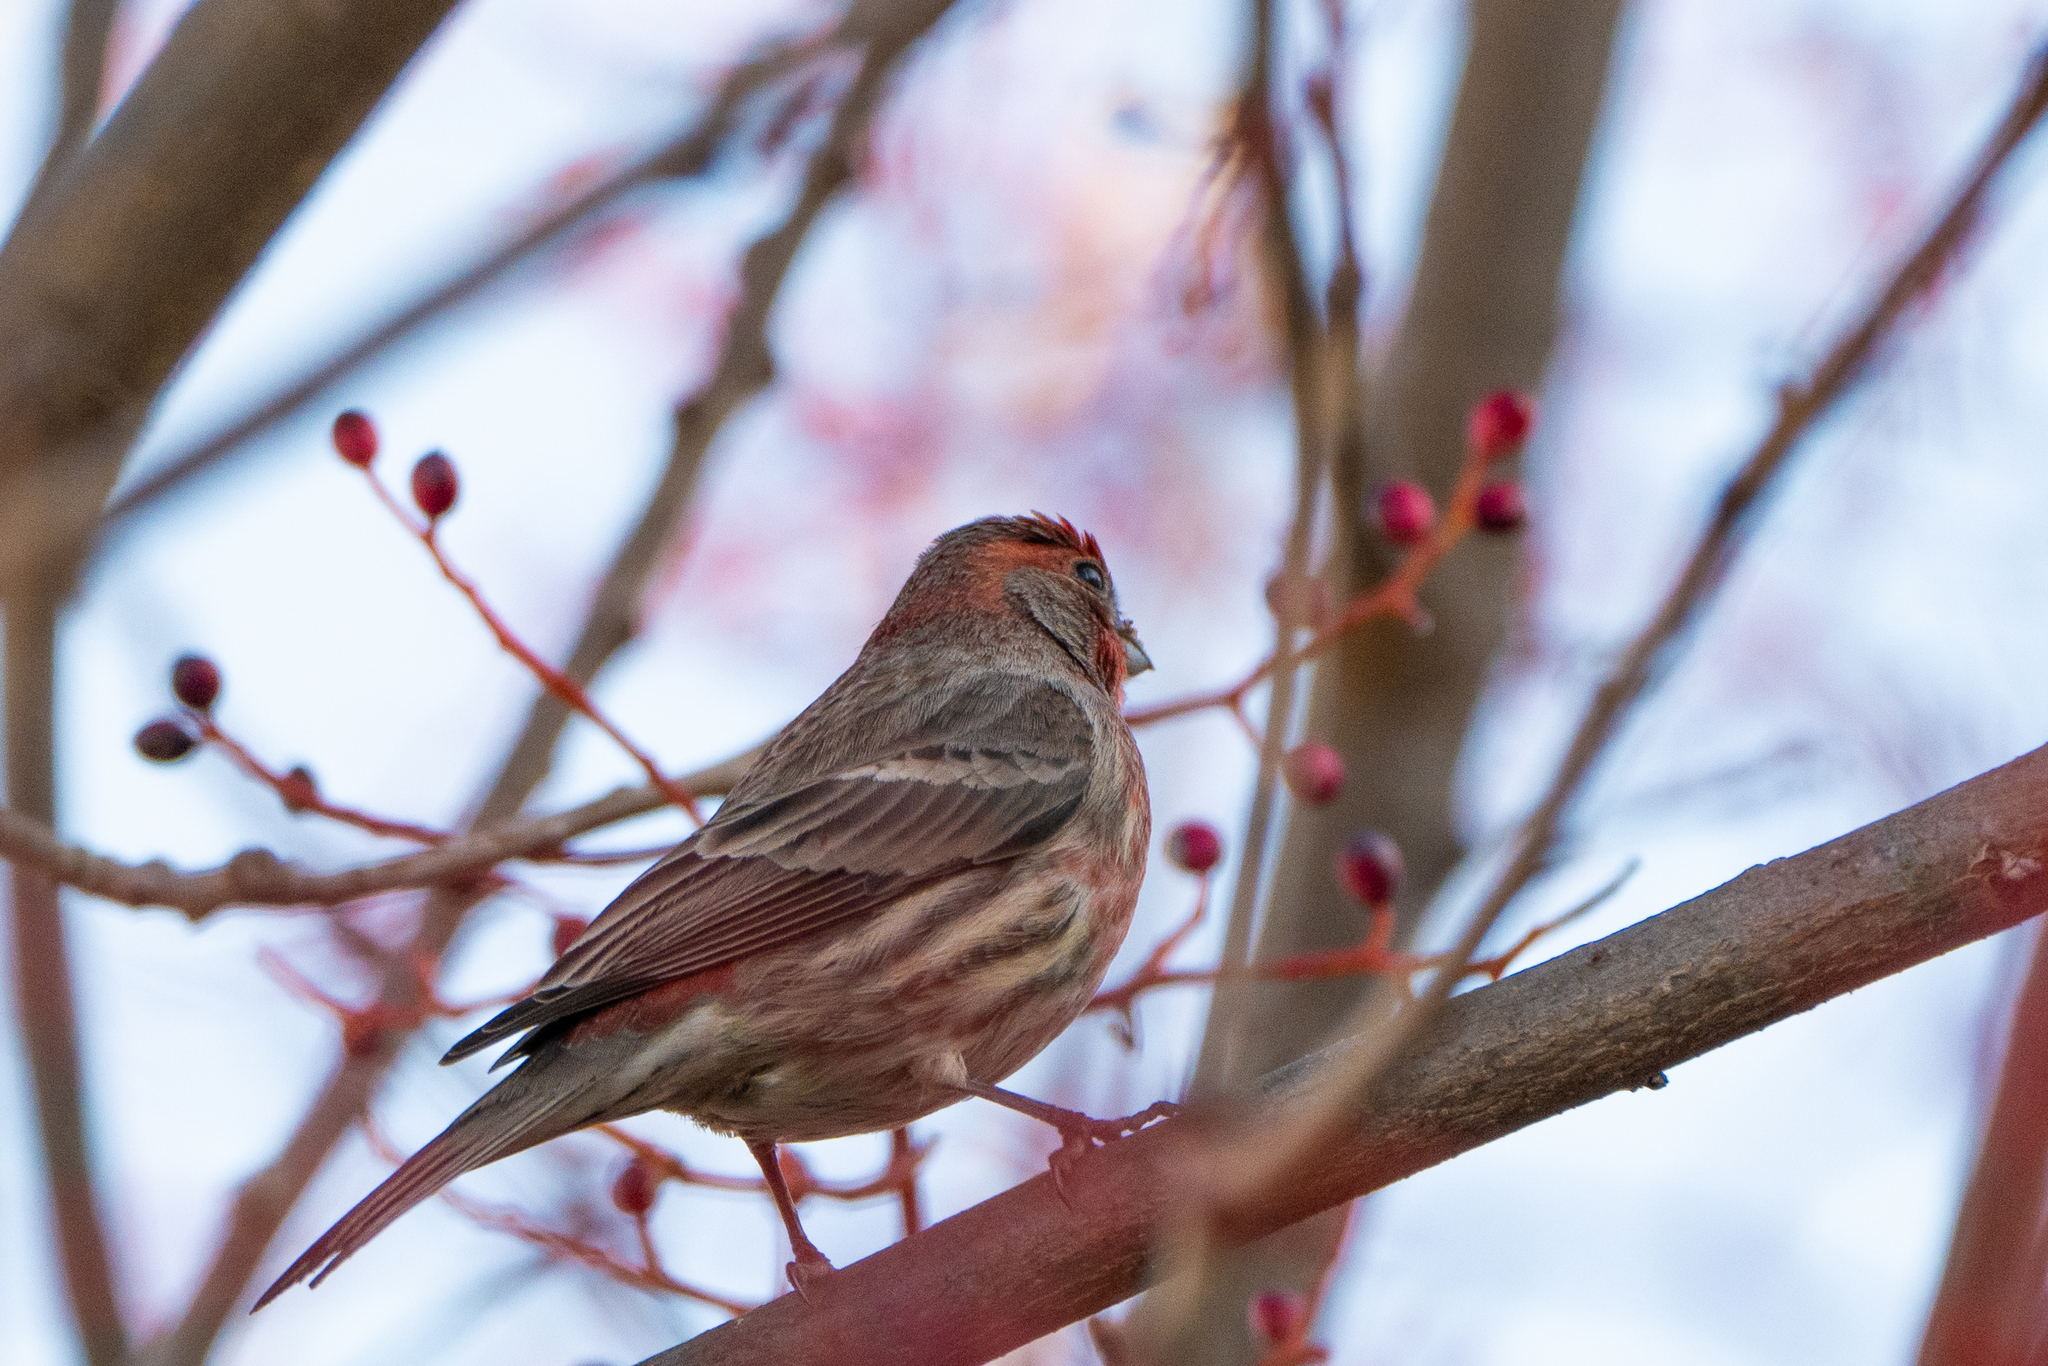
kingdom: Animalia
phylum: Chordata
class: Aves
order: Passeriformes
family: Fringillidae
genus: Haemorhous
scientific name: Haemorhous mexicanus
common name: House finch
